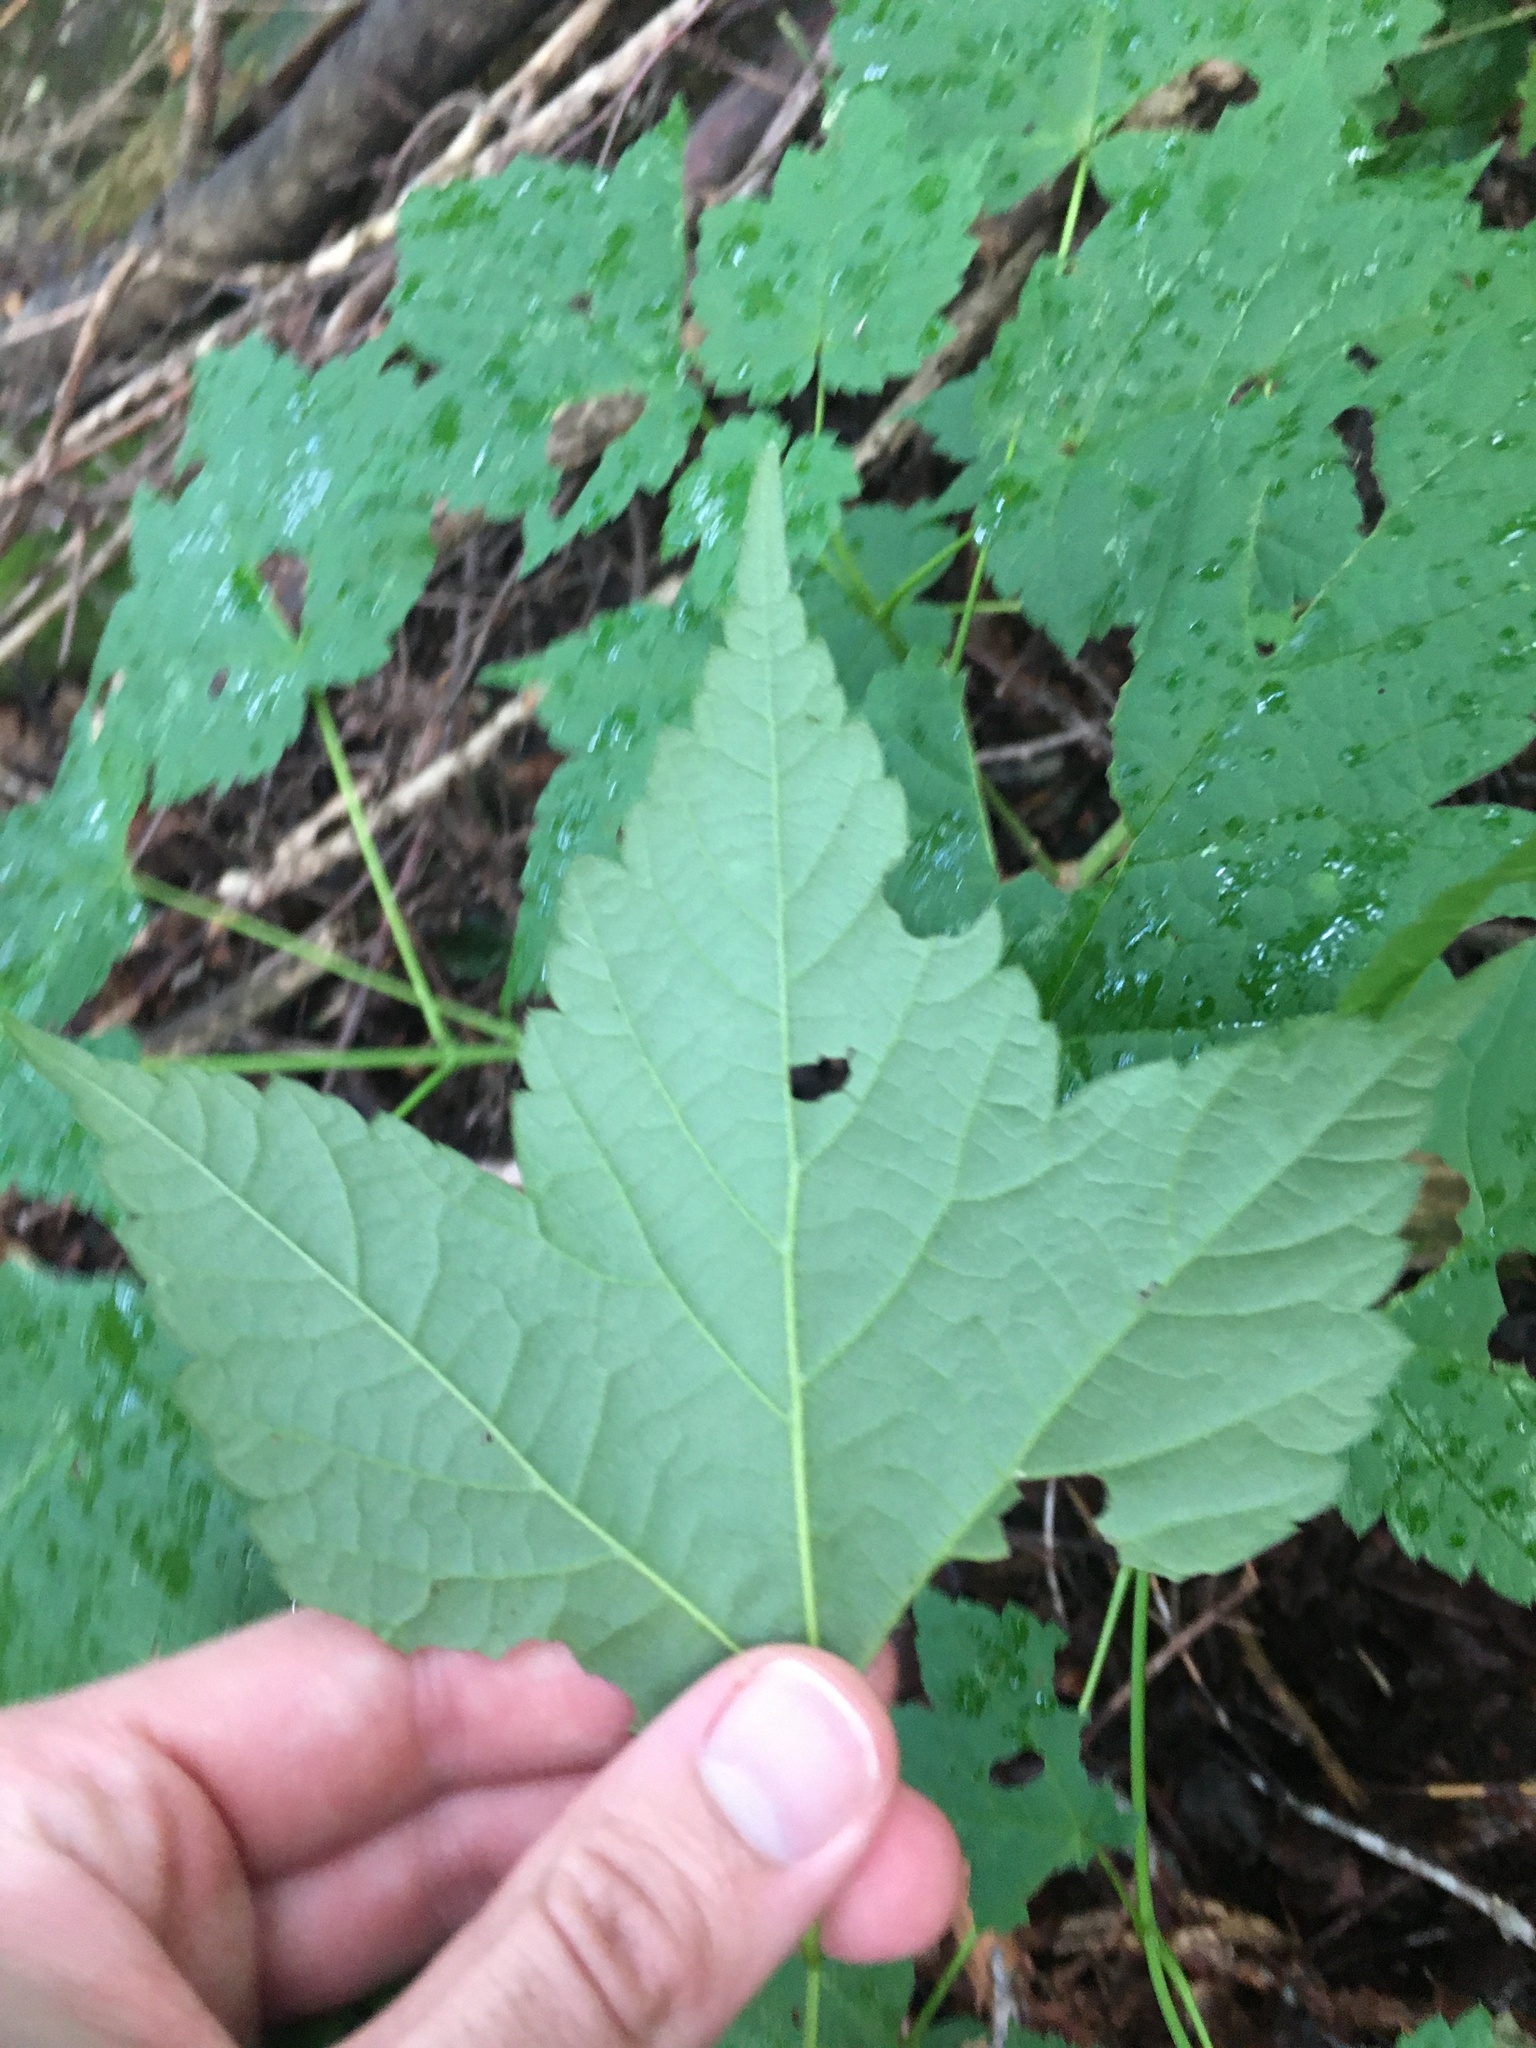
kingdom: Plantae
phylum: Tracheophyta
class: Magnoliopsida
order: Sapindales
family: Sapindaceae
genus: Acer
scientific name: Acer spicatum
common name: Mountain maple
